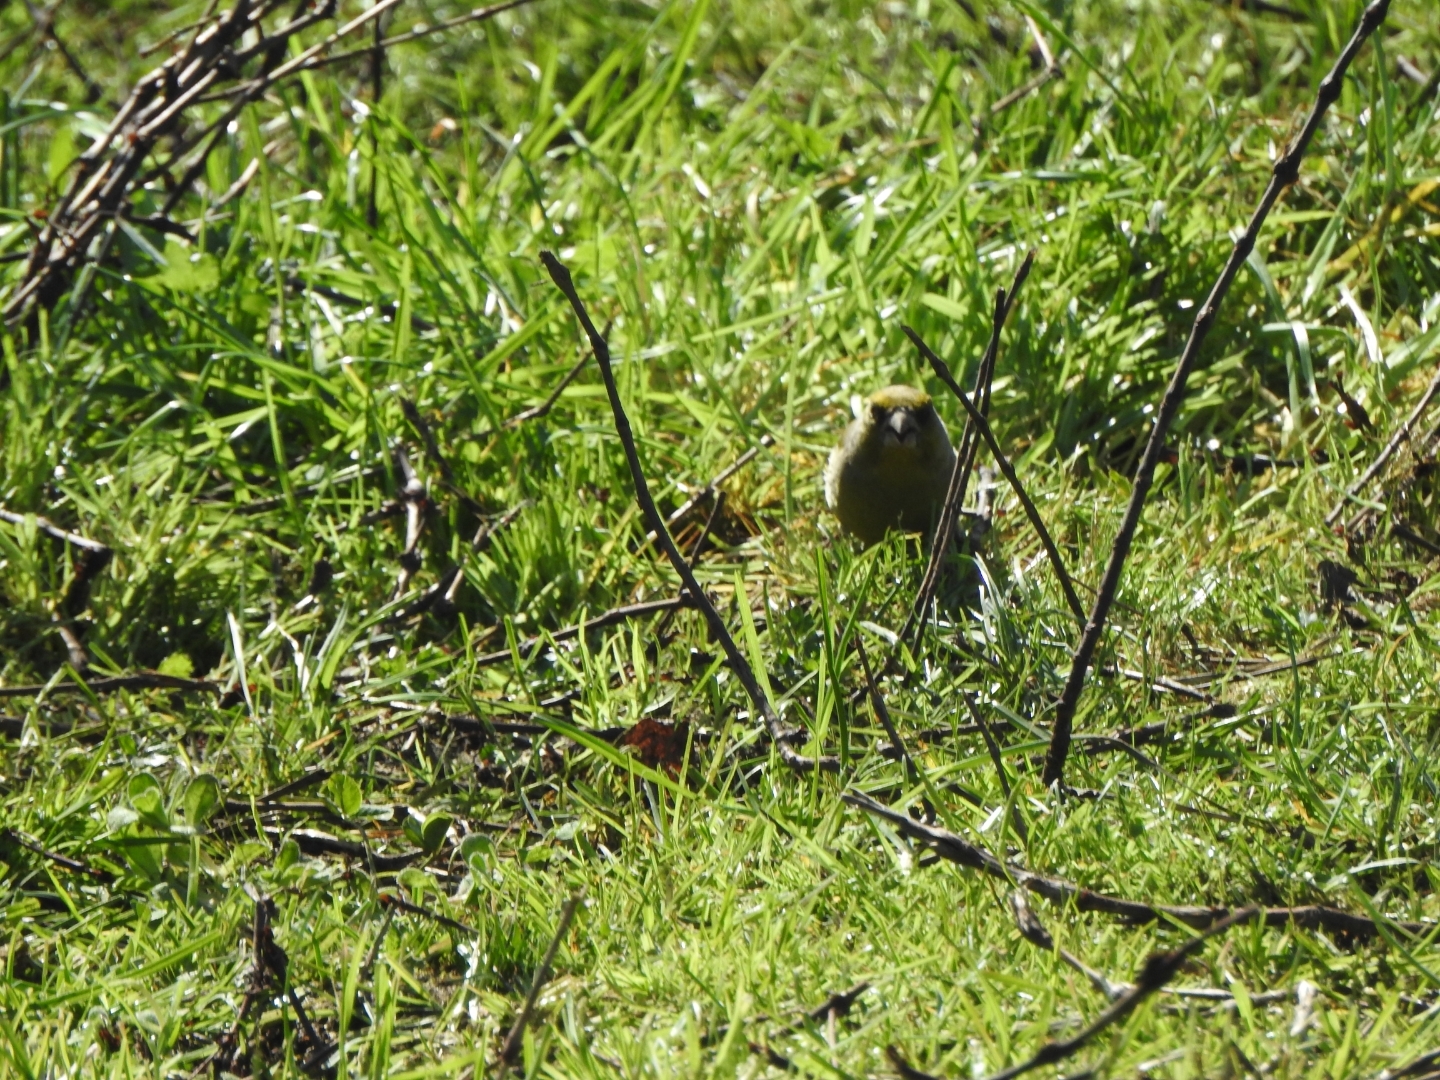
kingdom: Plantae
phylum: Tracheophyta
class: Liliopsida
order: Poales
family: Poaceae
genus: Chloris
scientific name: Chloris chloris
